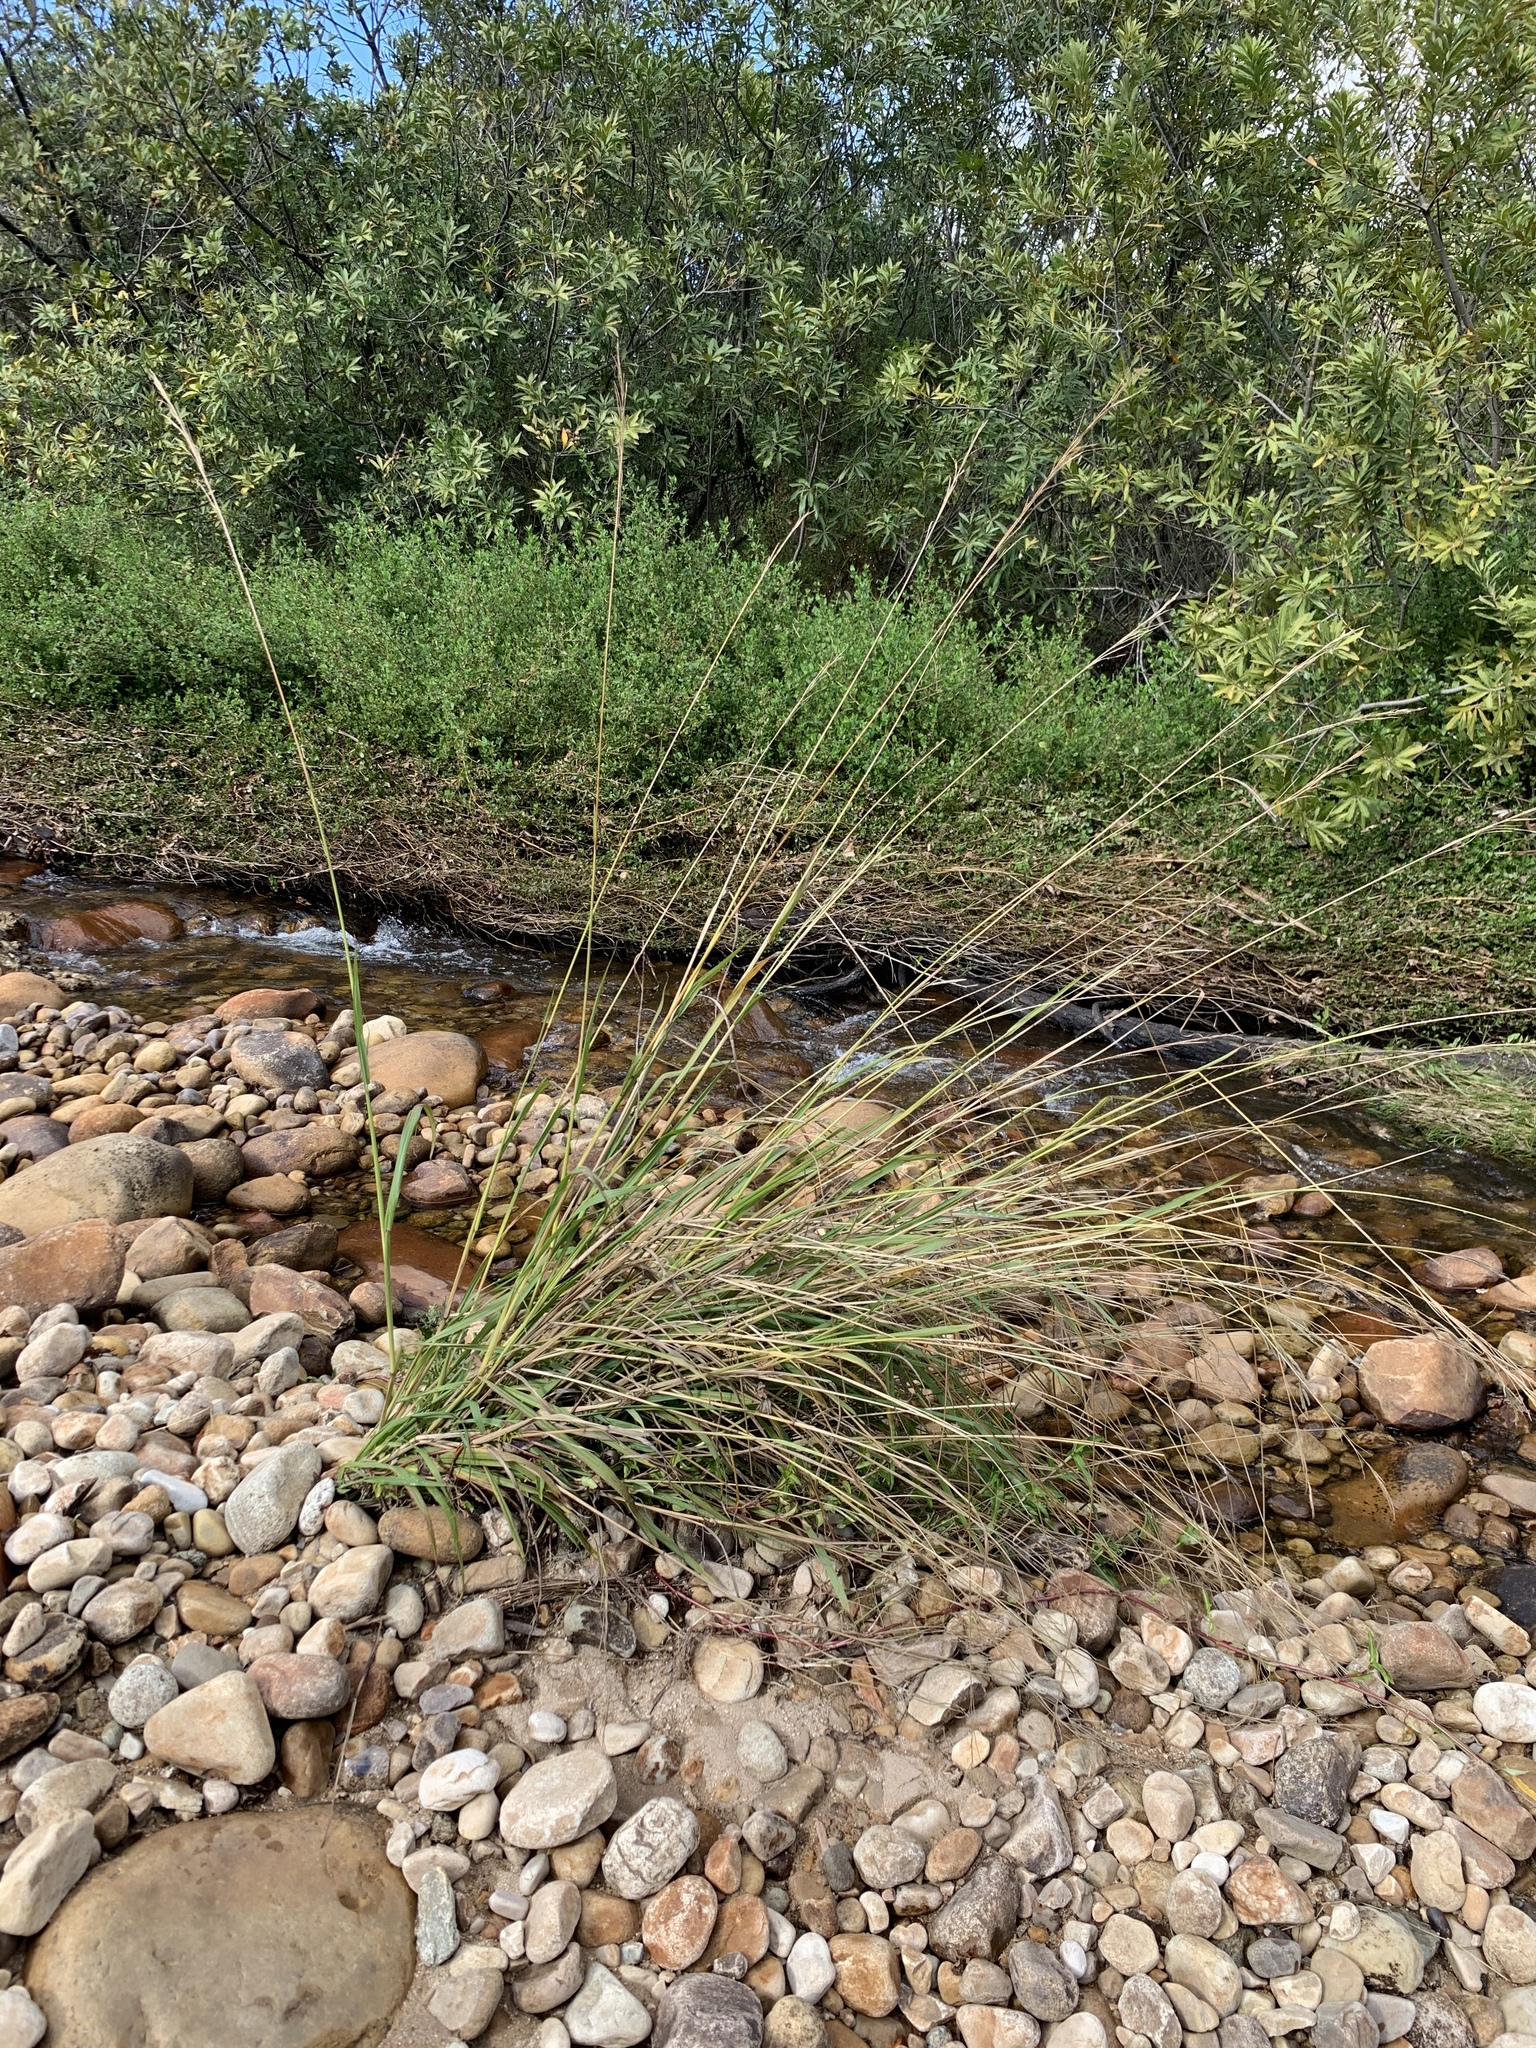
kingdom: Plantae
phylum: Tracheophyta
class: Liliopsida
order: Poales
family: Poaceae
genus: Paspalum
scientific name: Paspalum urvillei
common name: Vasey's grass
